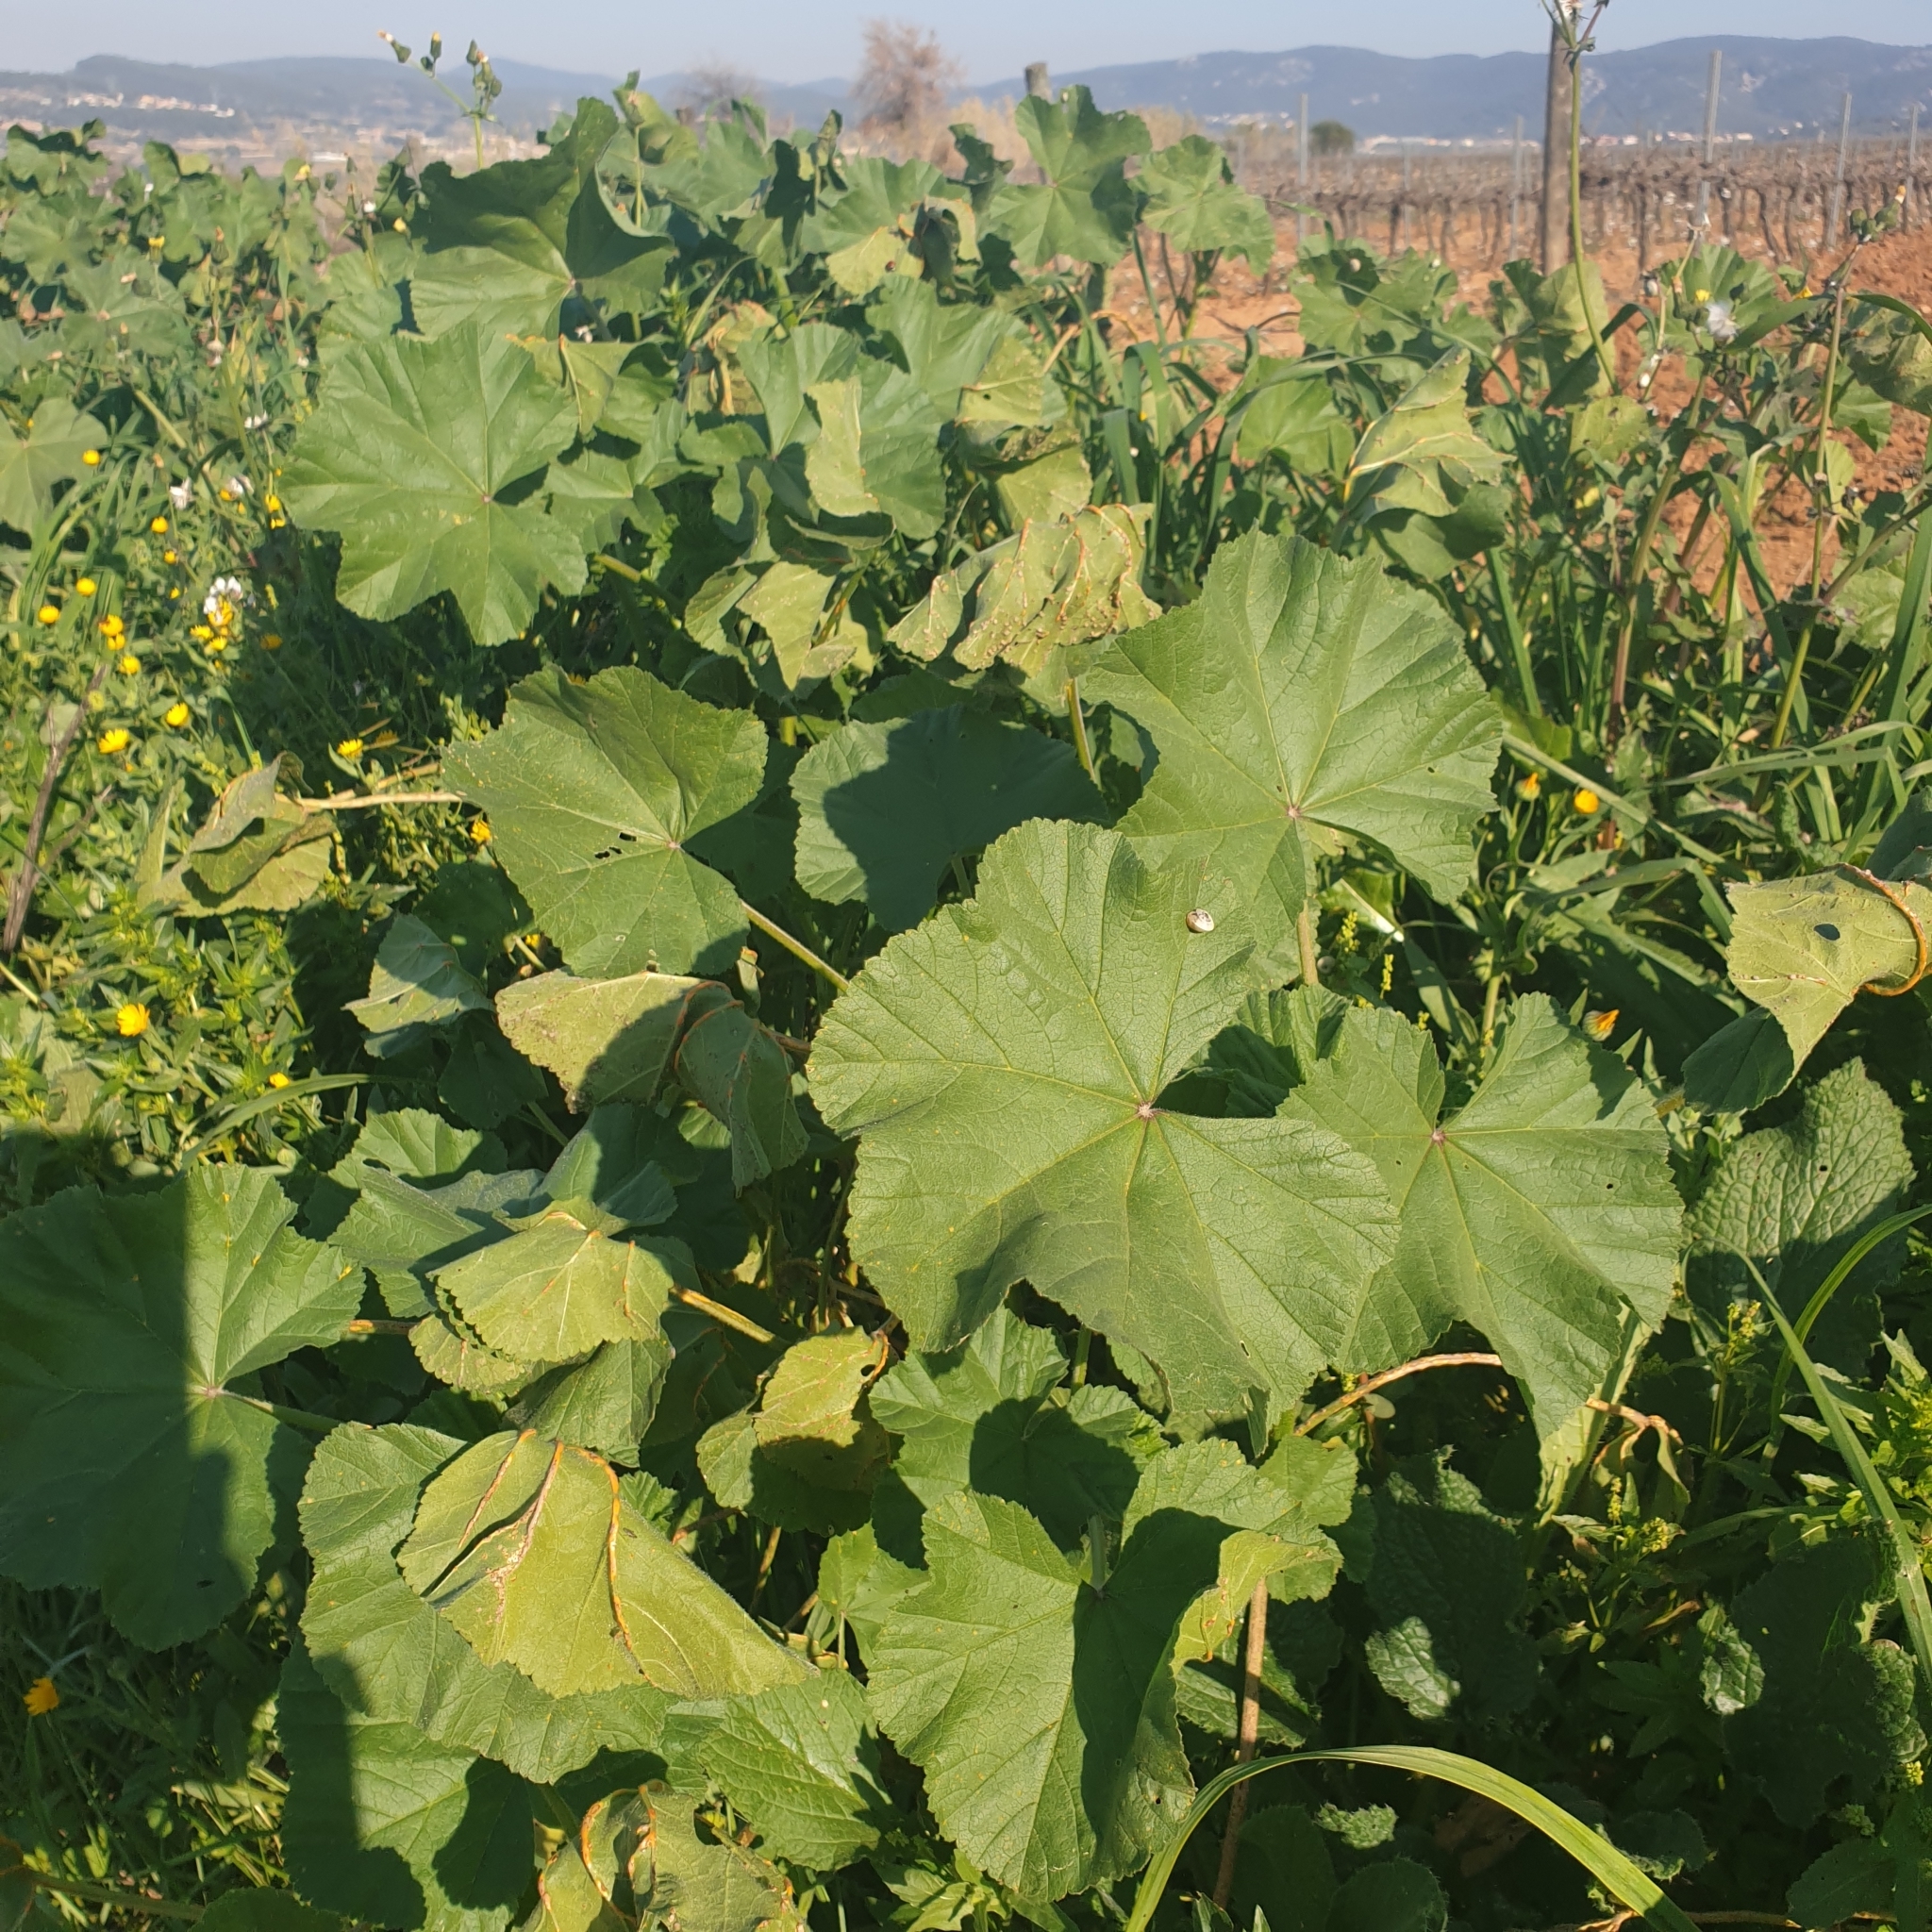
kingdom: Plantae
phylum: Tracheophyta
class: Magnoliopsida
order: Malvales
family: Malvaceae
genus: Malva
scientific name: Malva sylvestris
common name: Common mallow
